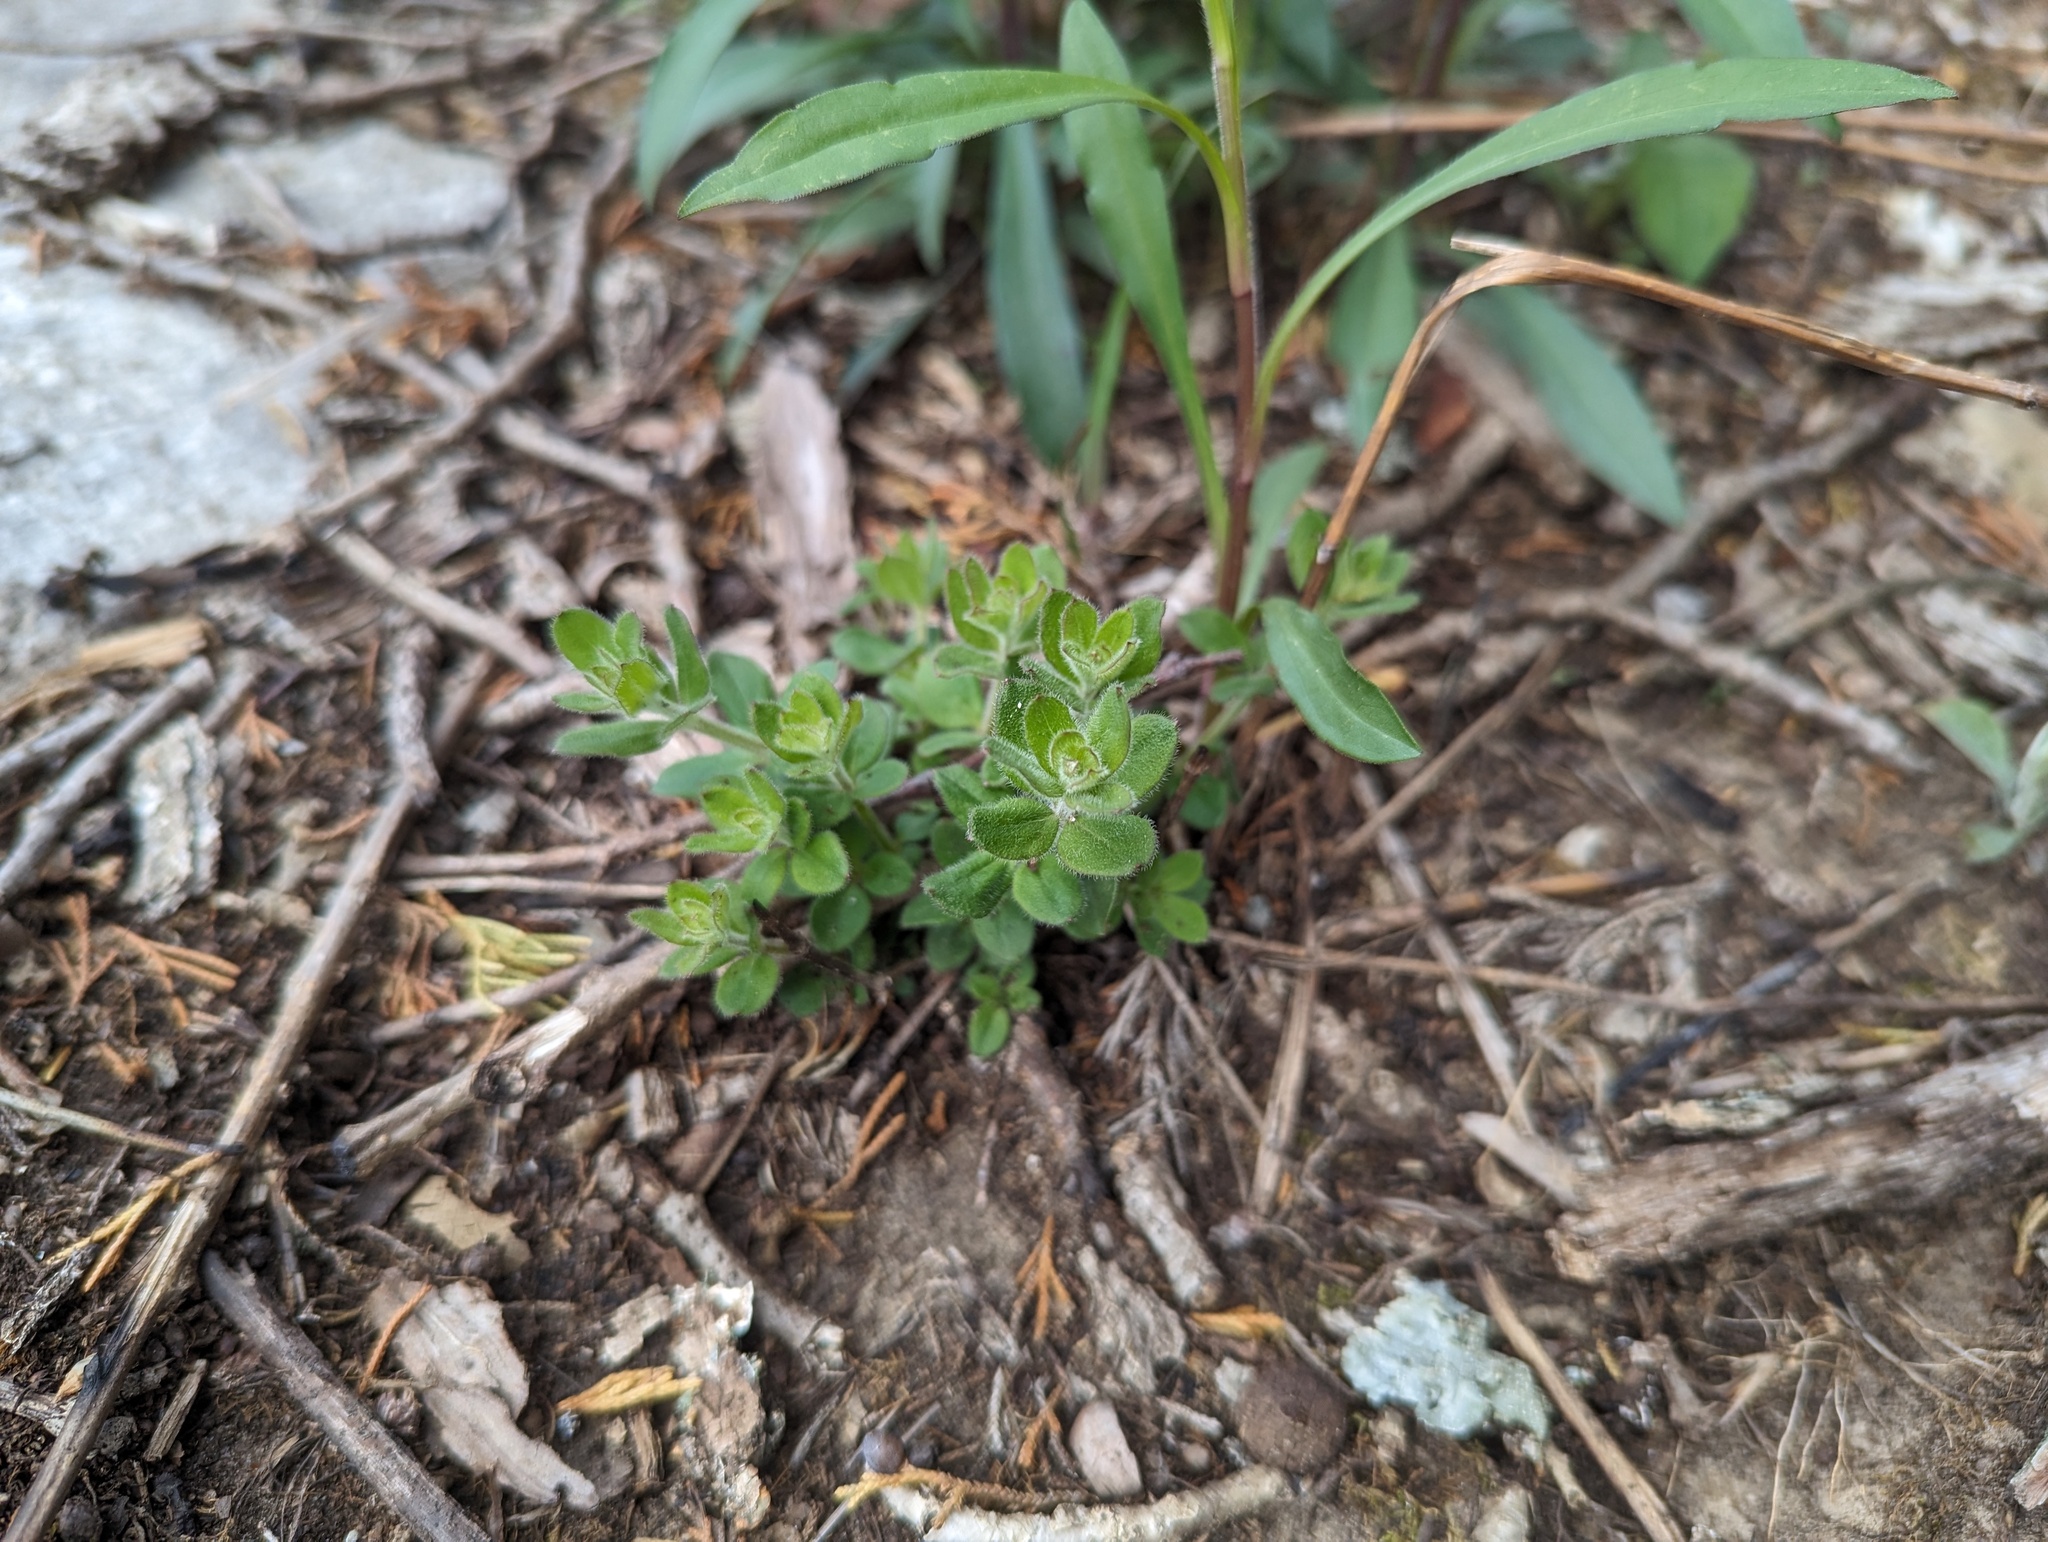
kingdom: Plantae
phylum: Tracheophyta
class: Magnoliopsida
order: Gentianales
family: Rubiaceae
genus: Galium
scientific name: Galium pilosum
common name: Hairy bedstraw
